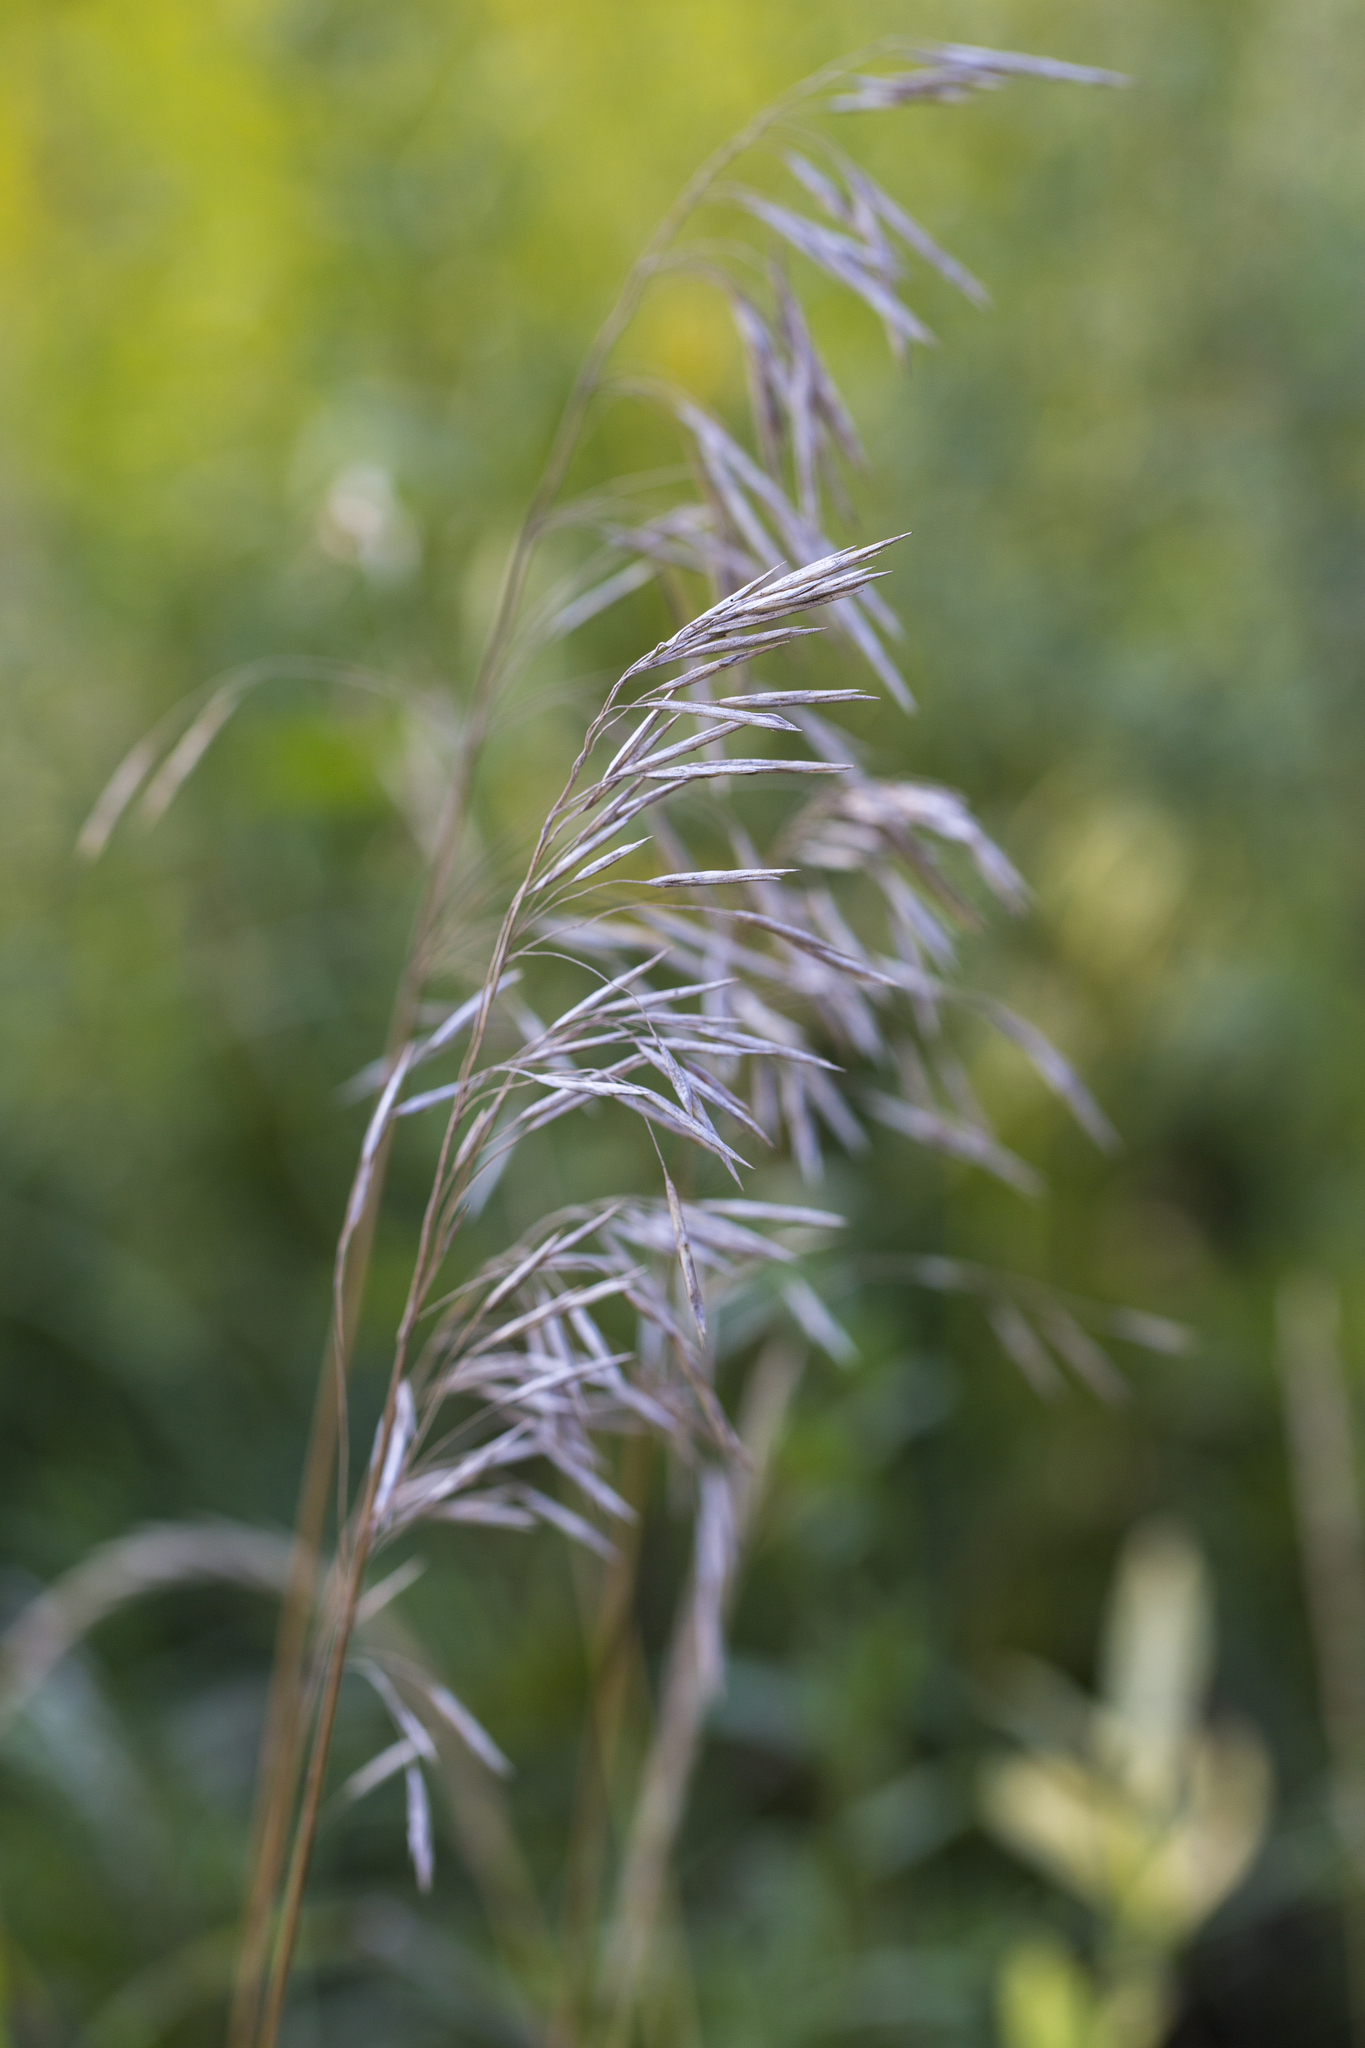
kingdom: Plantae
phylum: Tracheophyta
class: Liliopsida
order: Poales
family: Poaceae
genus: Bromus
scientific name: Bromus inermis
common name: Smooth brome
